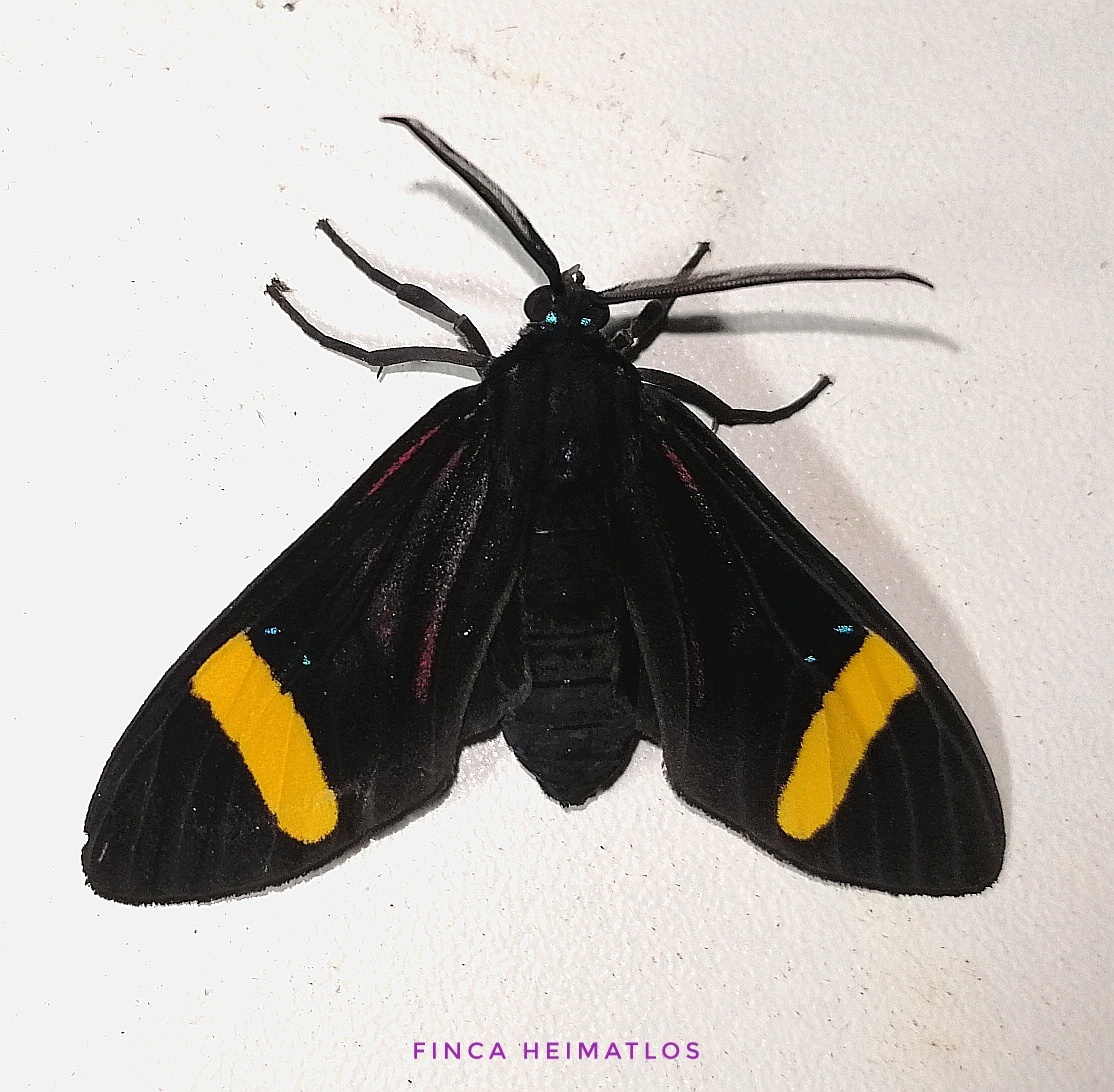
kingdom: Animalia
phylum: Arthropoda
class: Insecta
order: Lepidoptera
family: Erebidae
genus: Histioea
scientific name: Histioea proserpina
